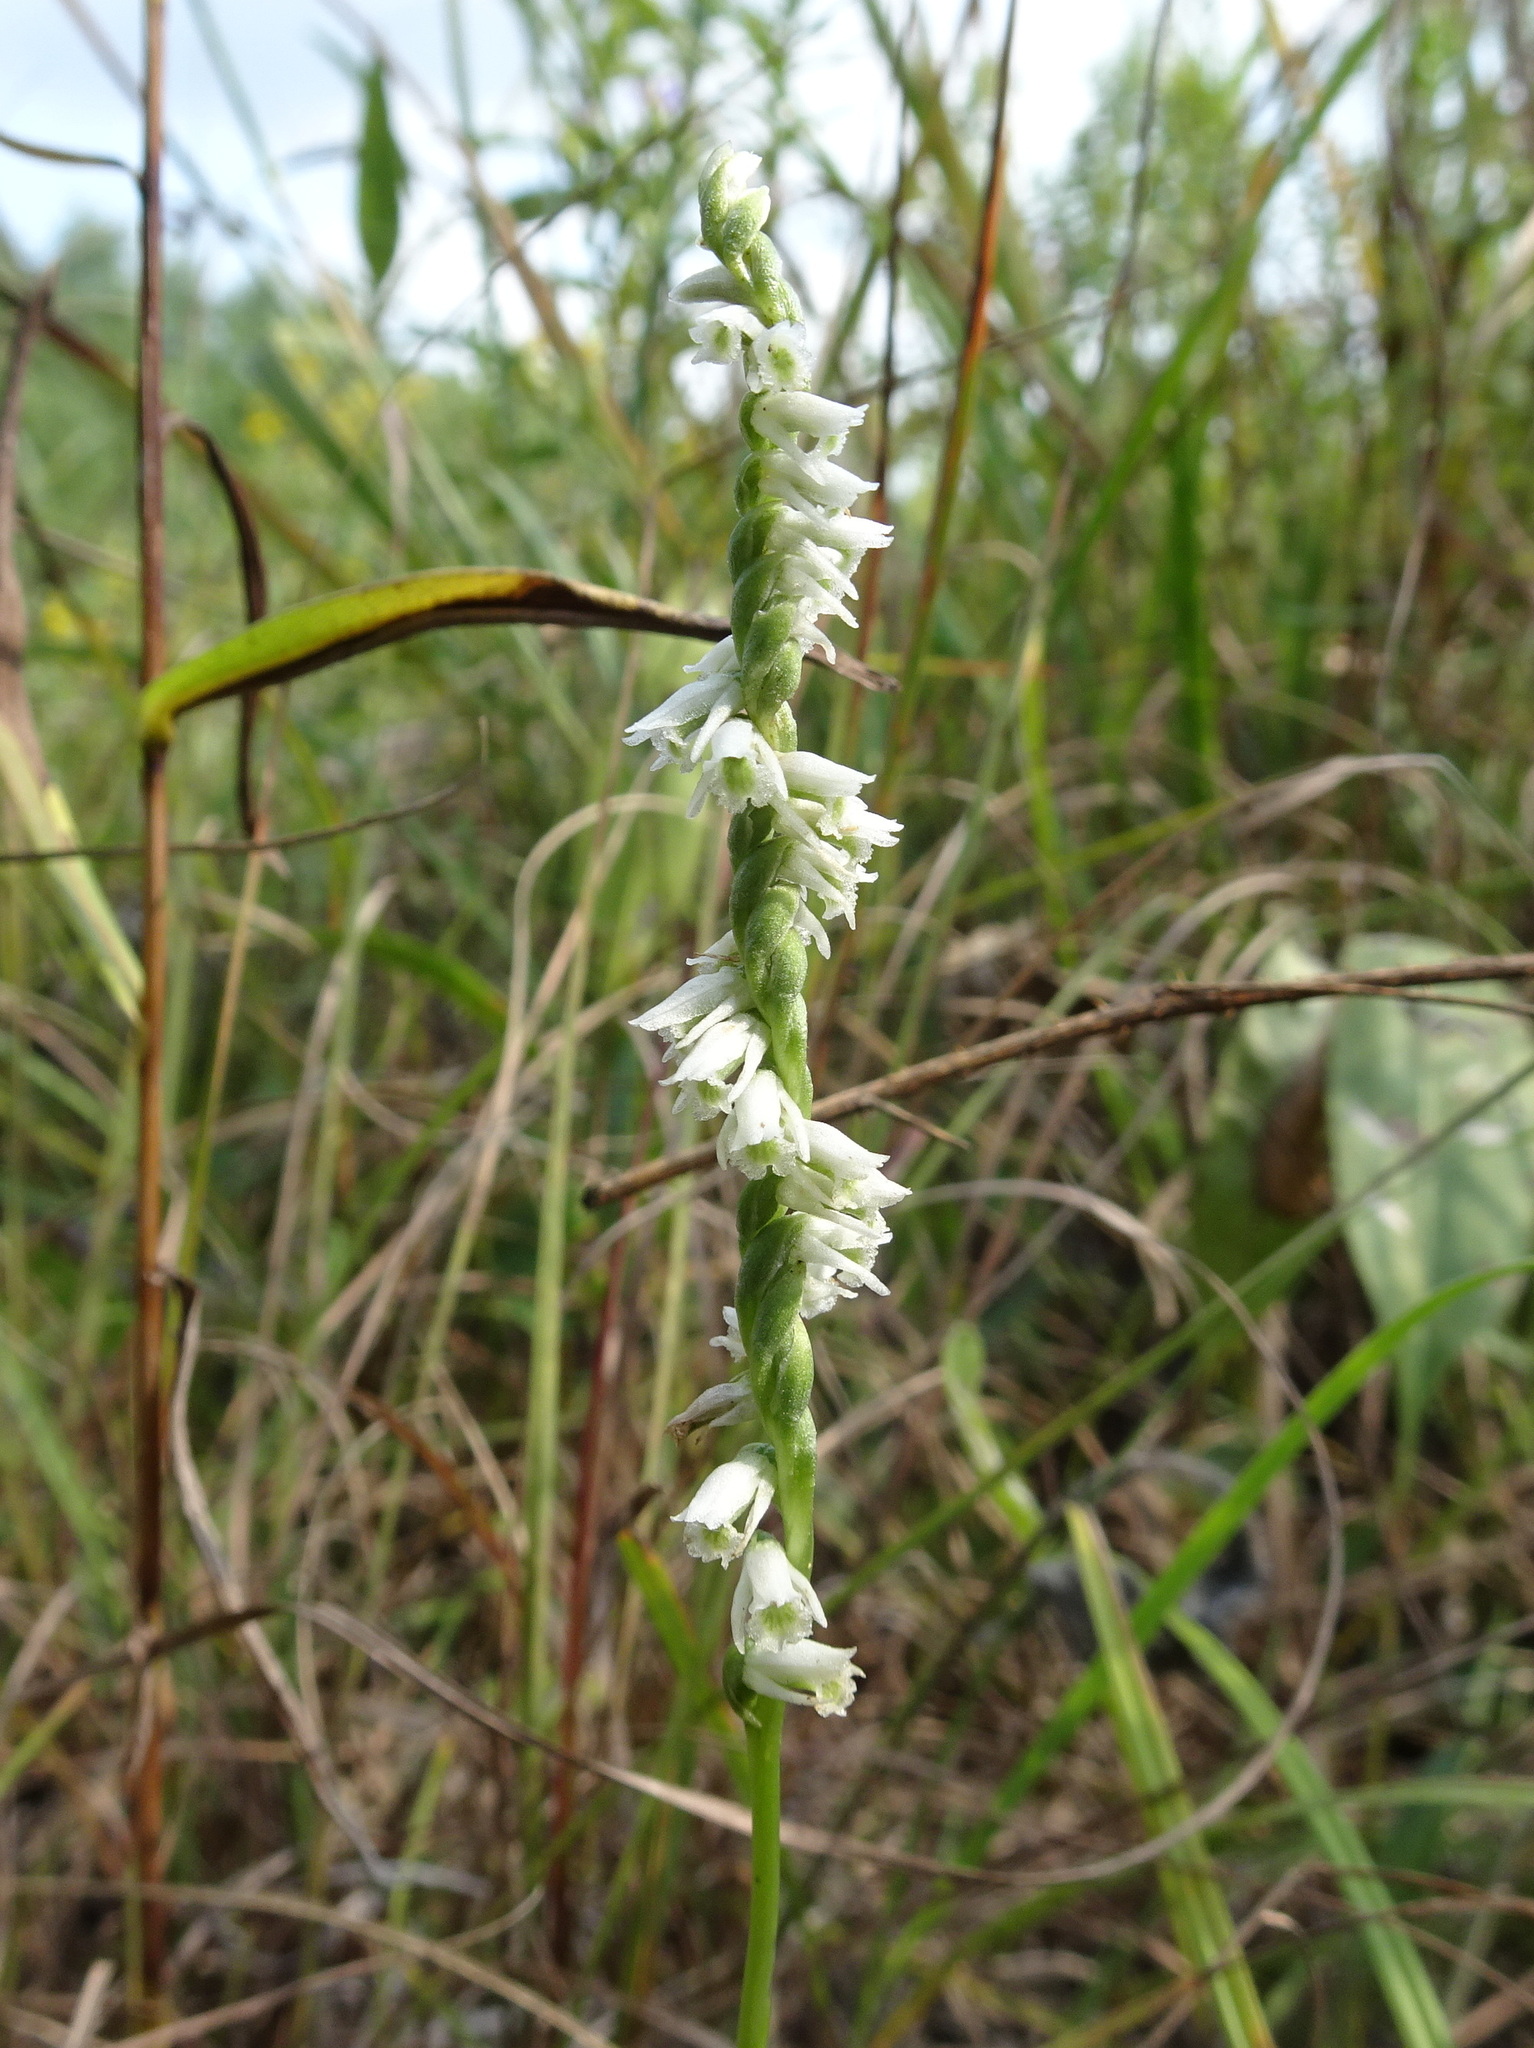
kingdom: Plantae
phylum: Tracheophyta
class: Liliopsida
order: Asparagales
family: Orchidaceae
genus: Spiranthes
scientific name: Spiranthes lacera
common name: Northern slender ladies'-tresses
